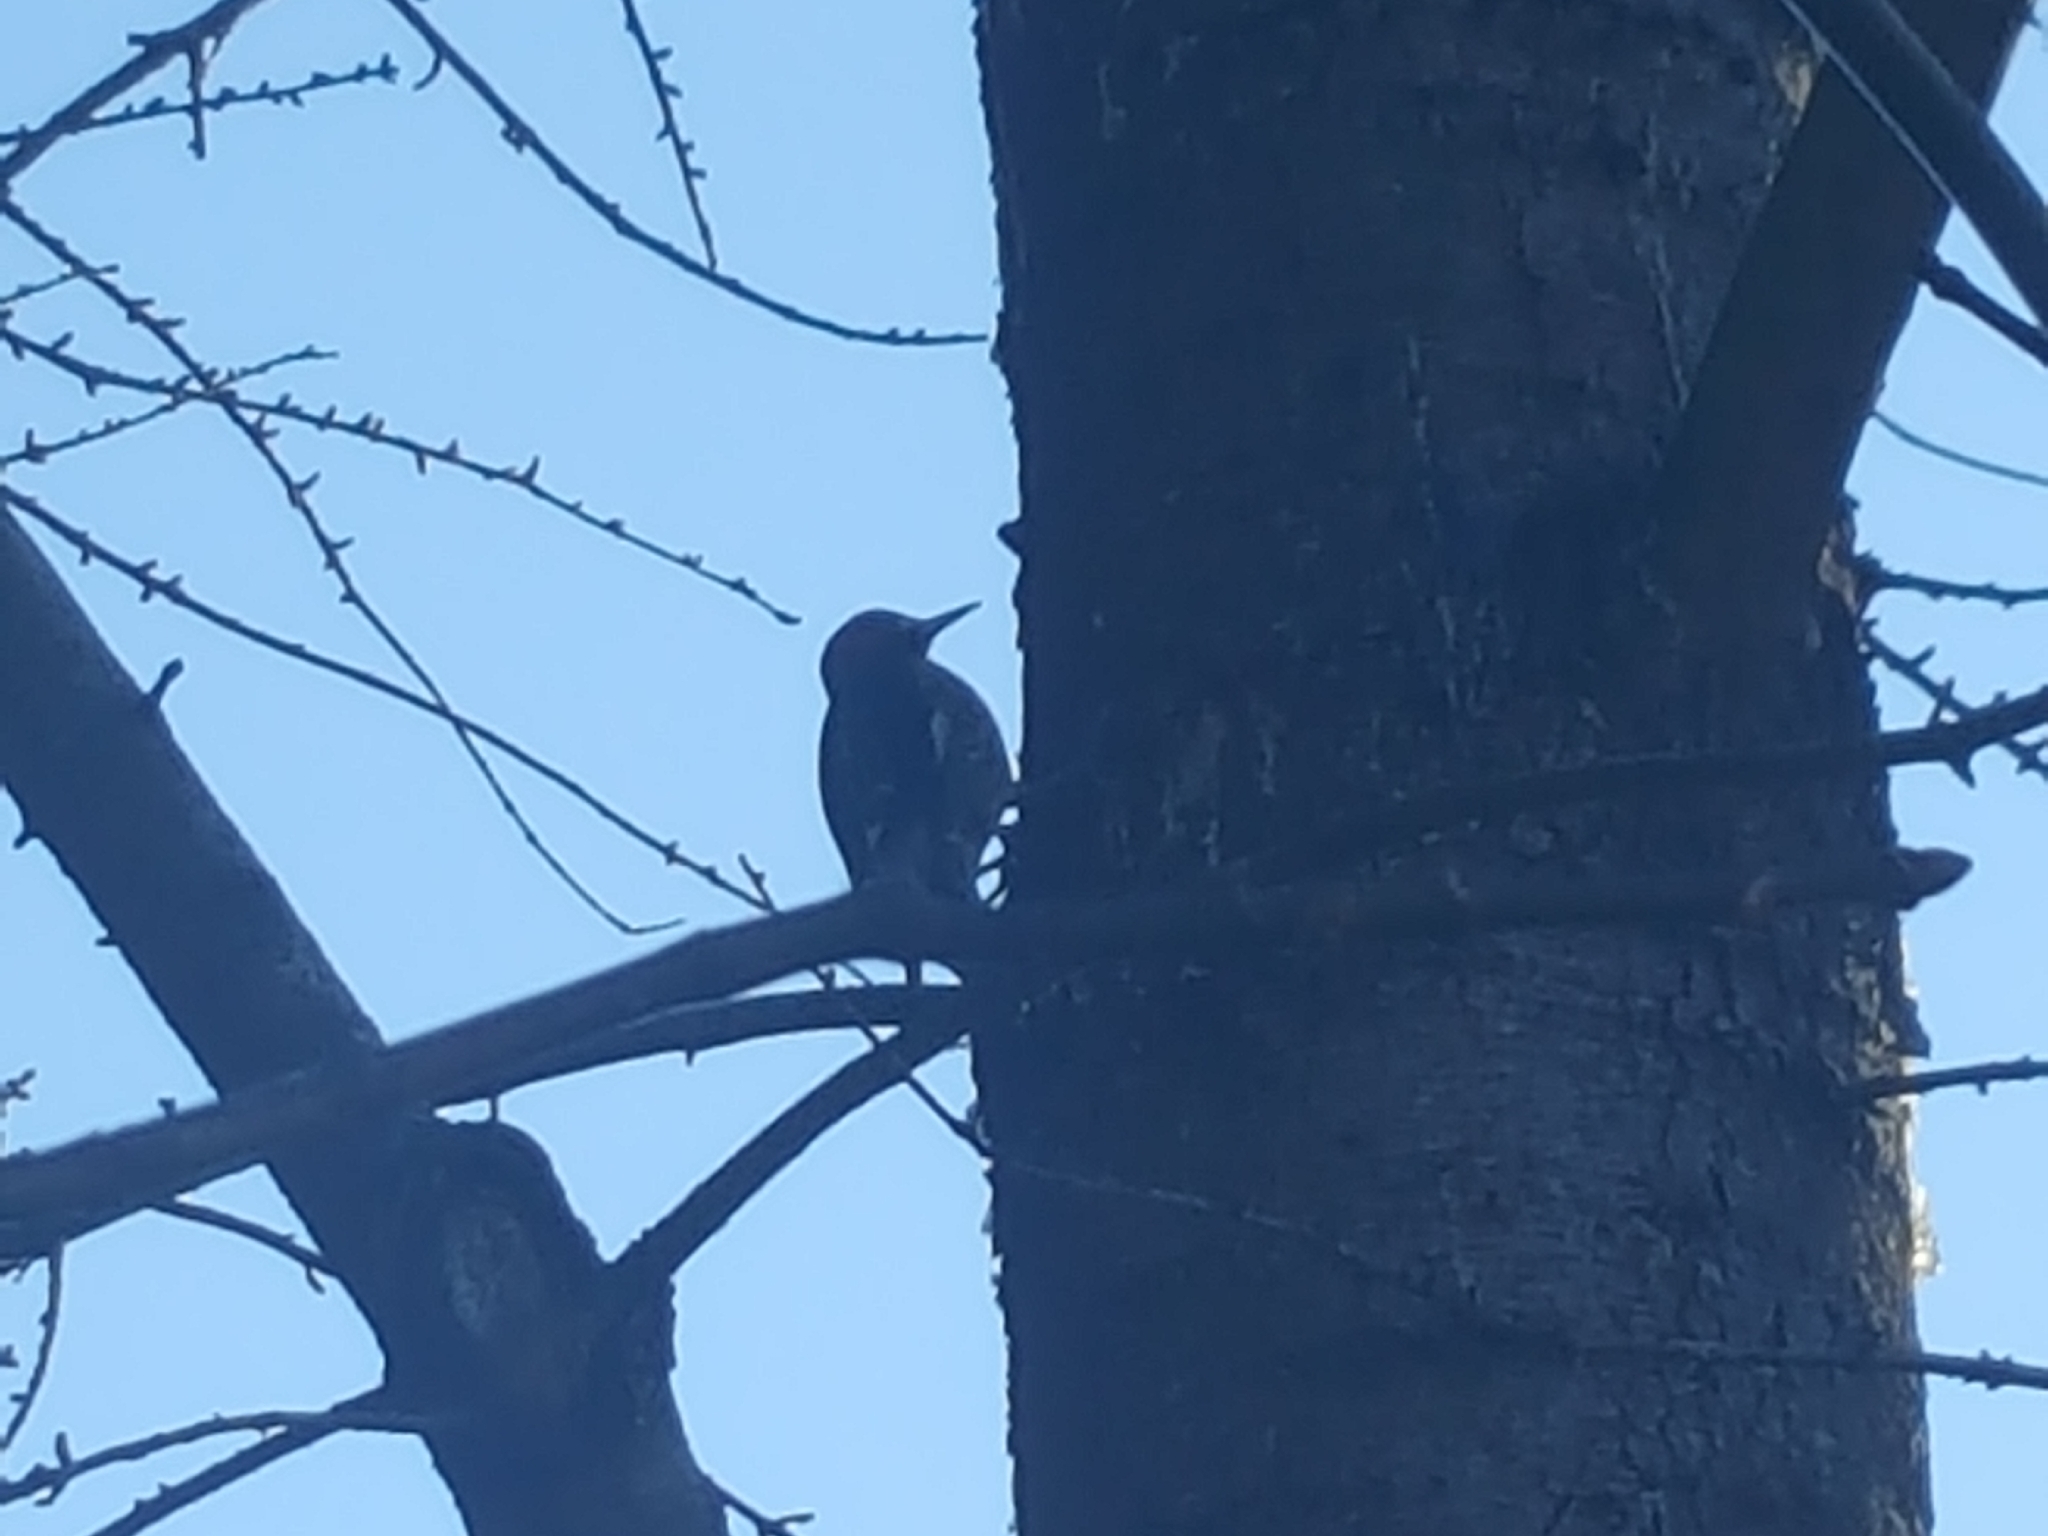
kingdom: Animalia
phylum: Chordata
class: Aves
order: Piciformes
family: Picidae
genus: Sphyrapicus
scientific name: Sphyrapicus ruber
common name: Red-breasted sapsucker
